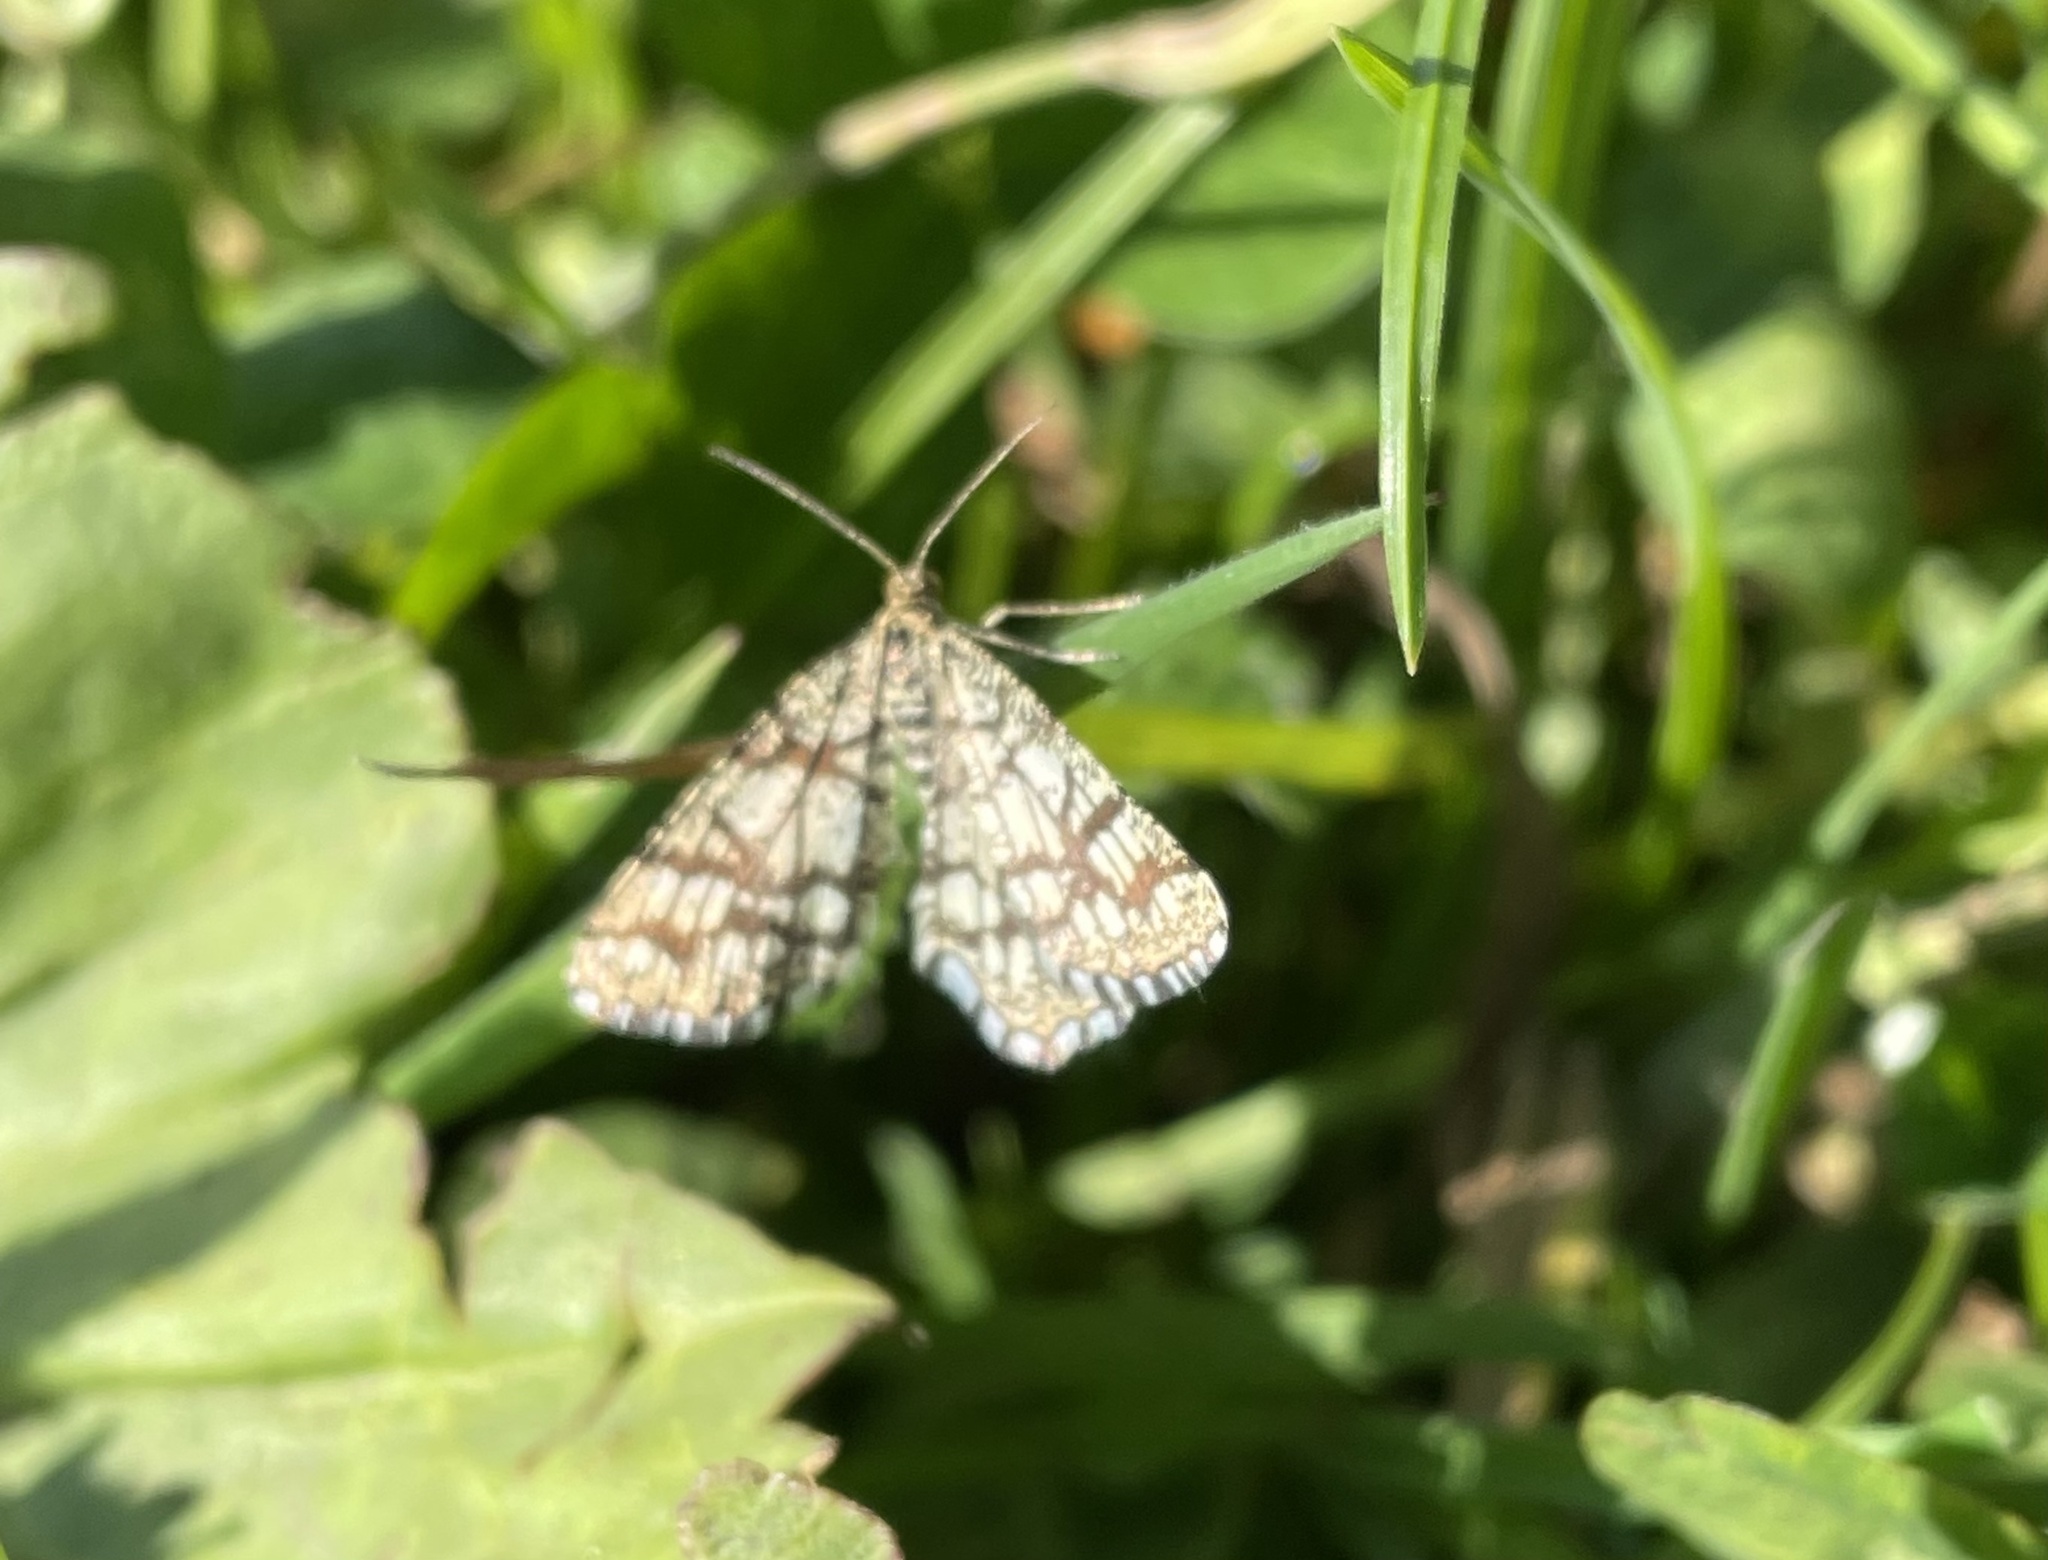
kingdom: Animalia
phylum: Arthropoda
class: Insecta
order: Lepidoptera
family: Geometridae
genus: Chiasmia
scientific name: Chiasmia clathrata
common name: Latticed heath
